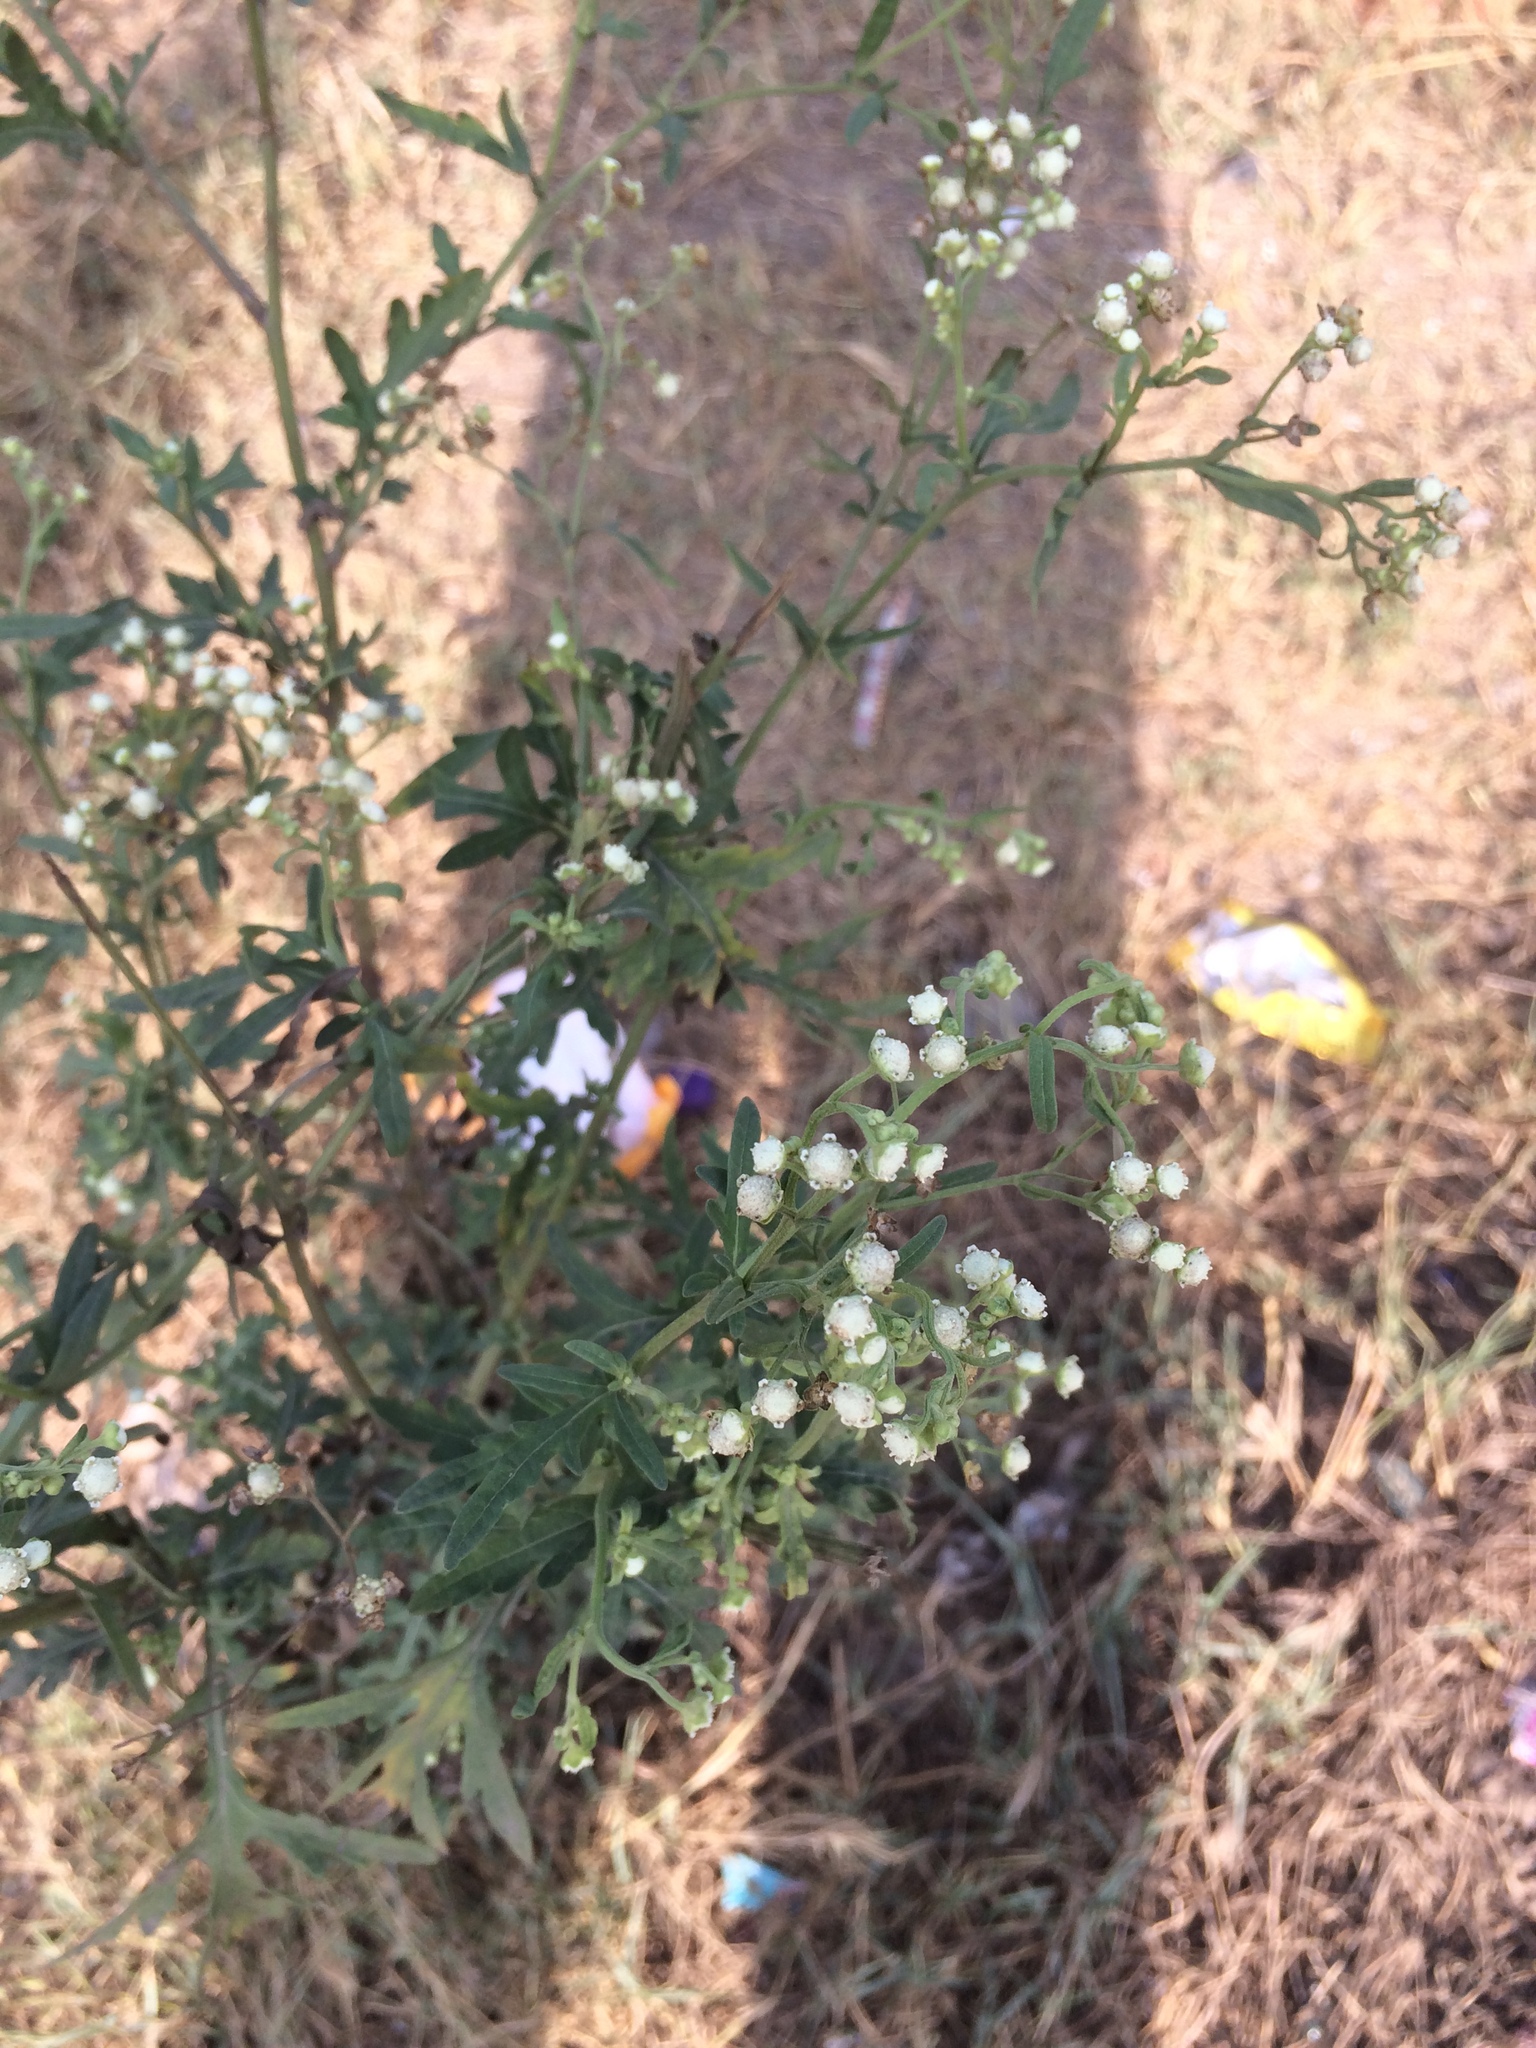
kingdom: Plantae
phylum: Tracheophyta
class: Magnoliopsida
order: Asterales
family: Asteraceae
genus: Parthenium
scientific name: Parthenium hysterophorus
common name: Santa maria feverfew
